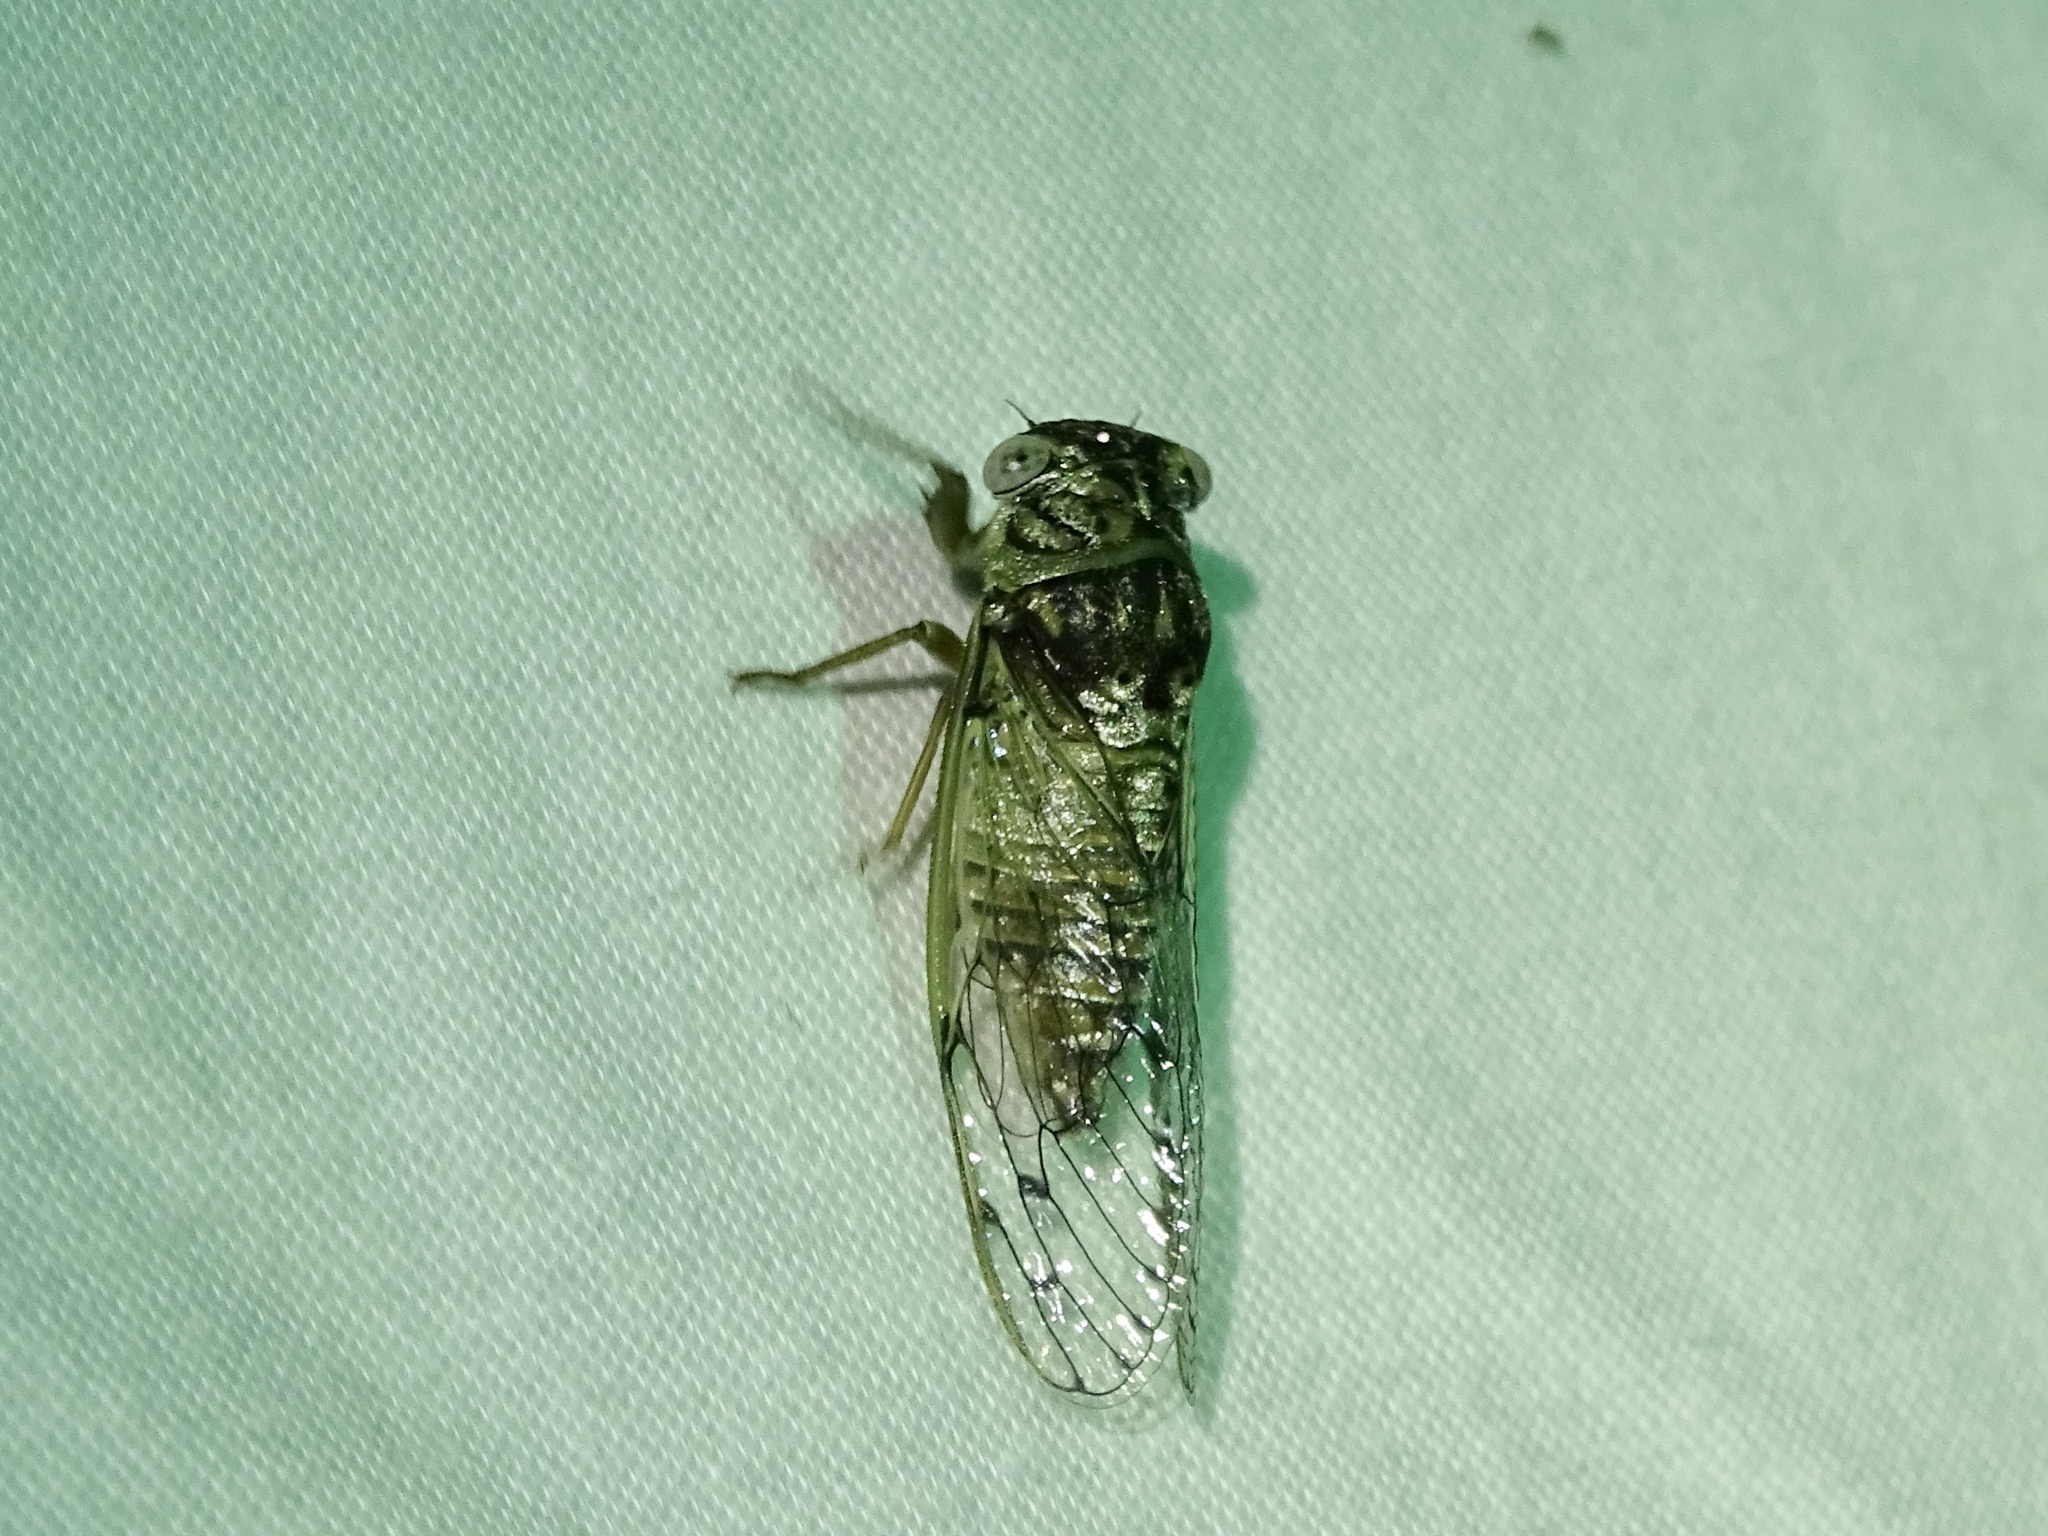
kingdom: Animalia
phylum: Arthropoda
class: Insecta
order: Hemiptera
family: Cicadidae
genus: Pacarina
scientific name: Pacarina puella
